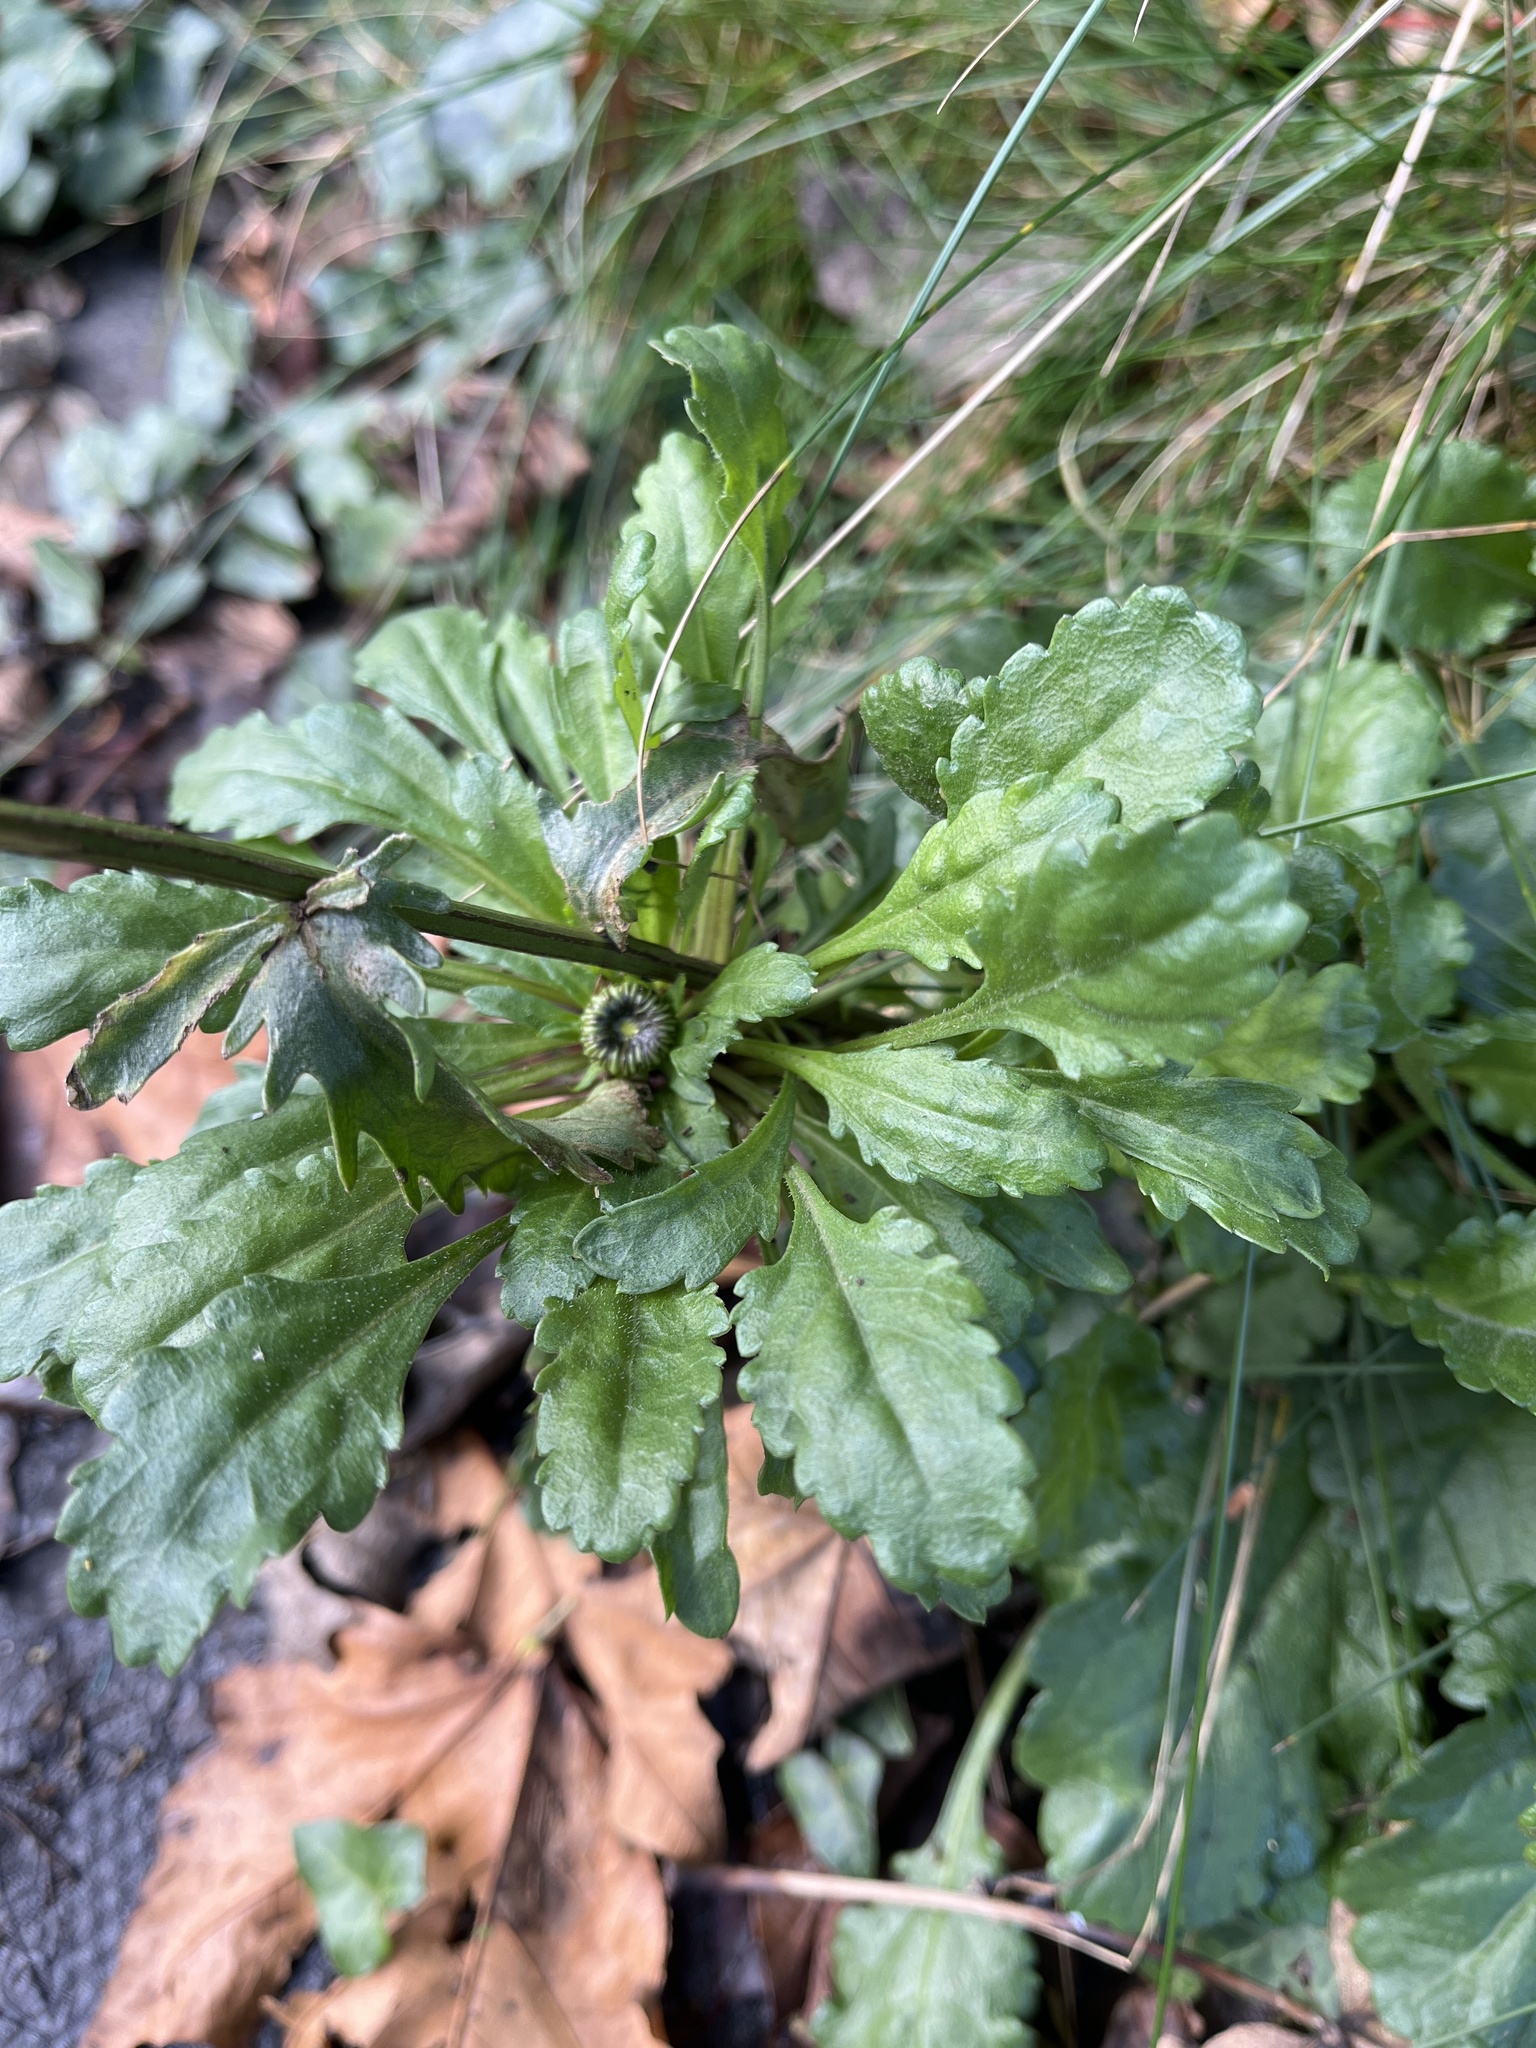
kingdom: Plantae
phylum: Tracheophyta
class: Magnoliopsida
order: Asterales
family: Asteraceae
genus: Leucanthemum
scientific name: Leucanthemum vulgare
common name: Oxeye daisy
